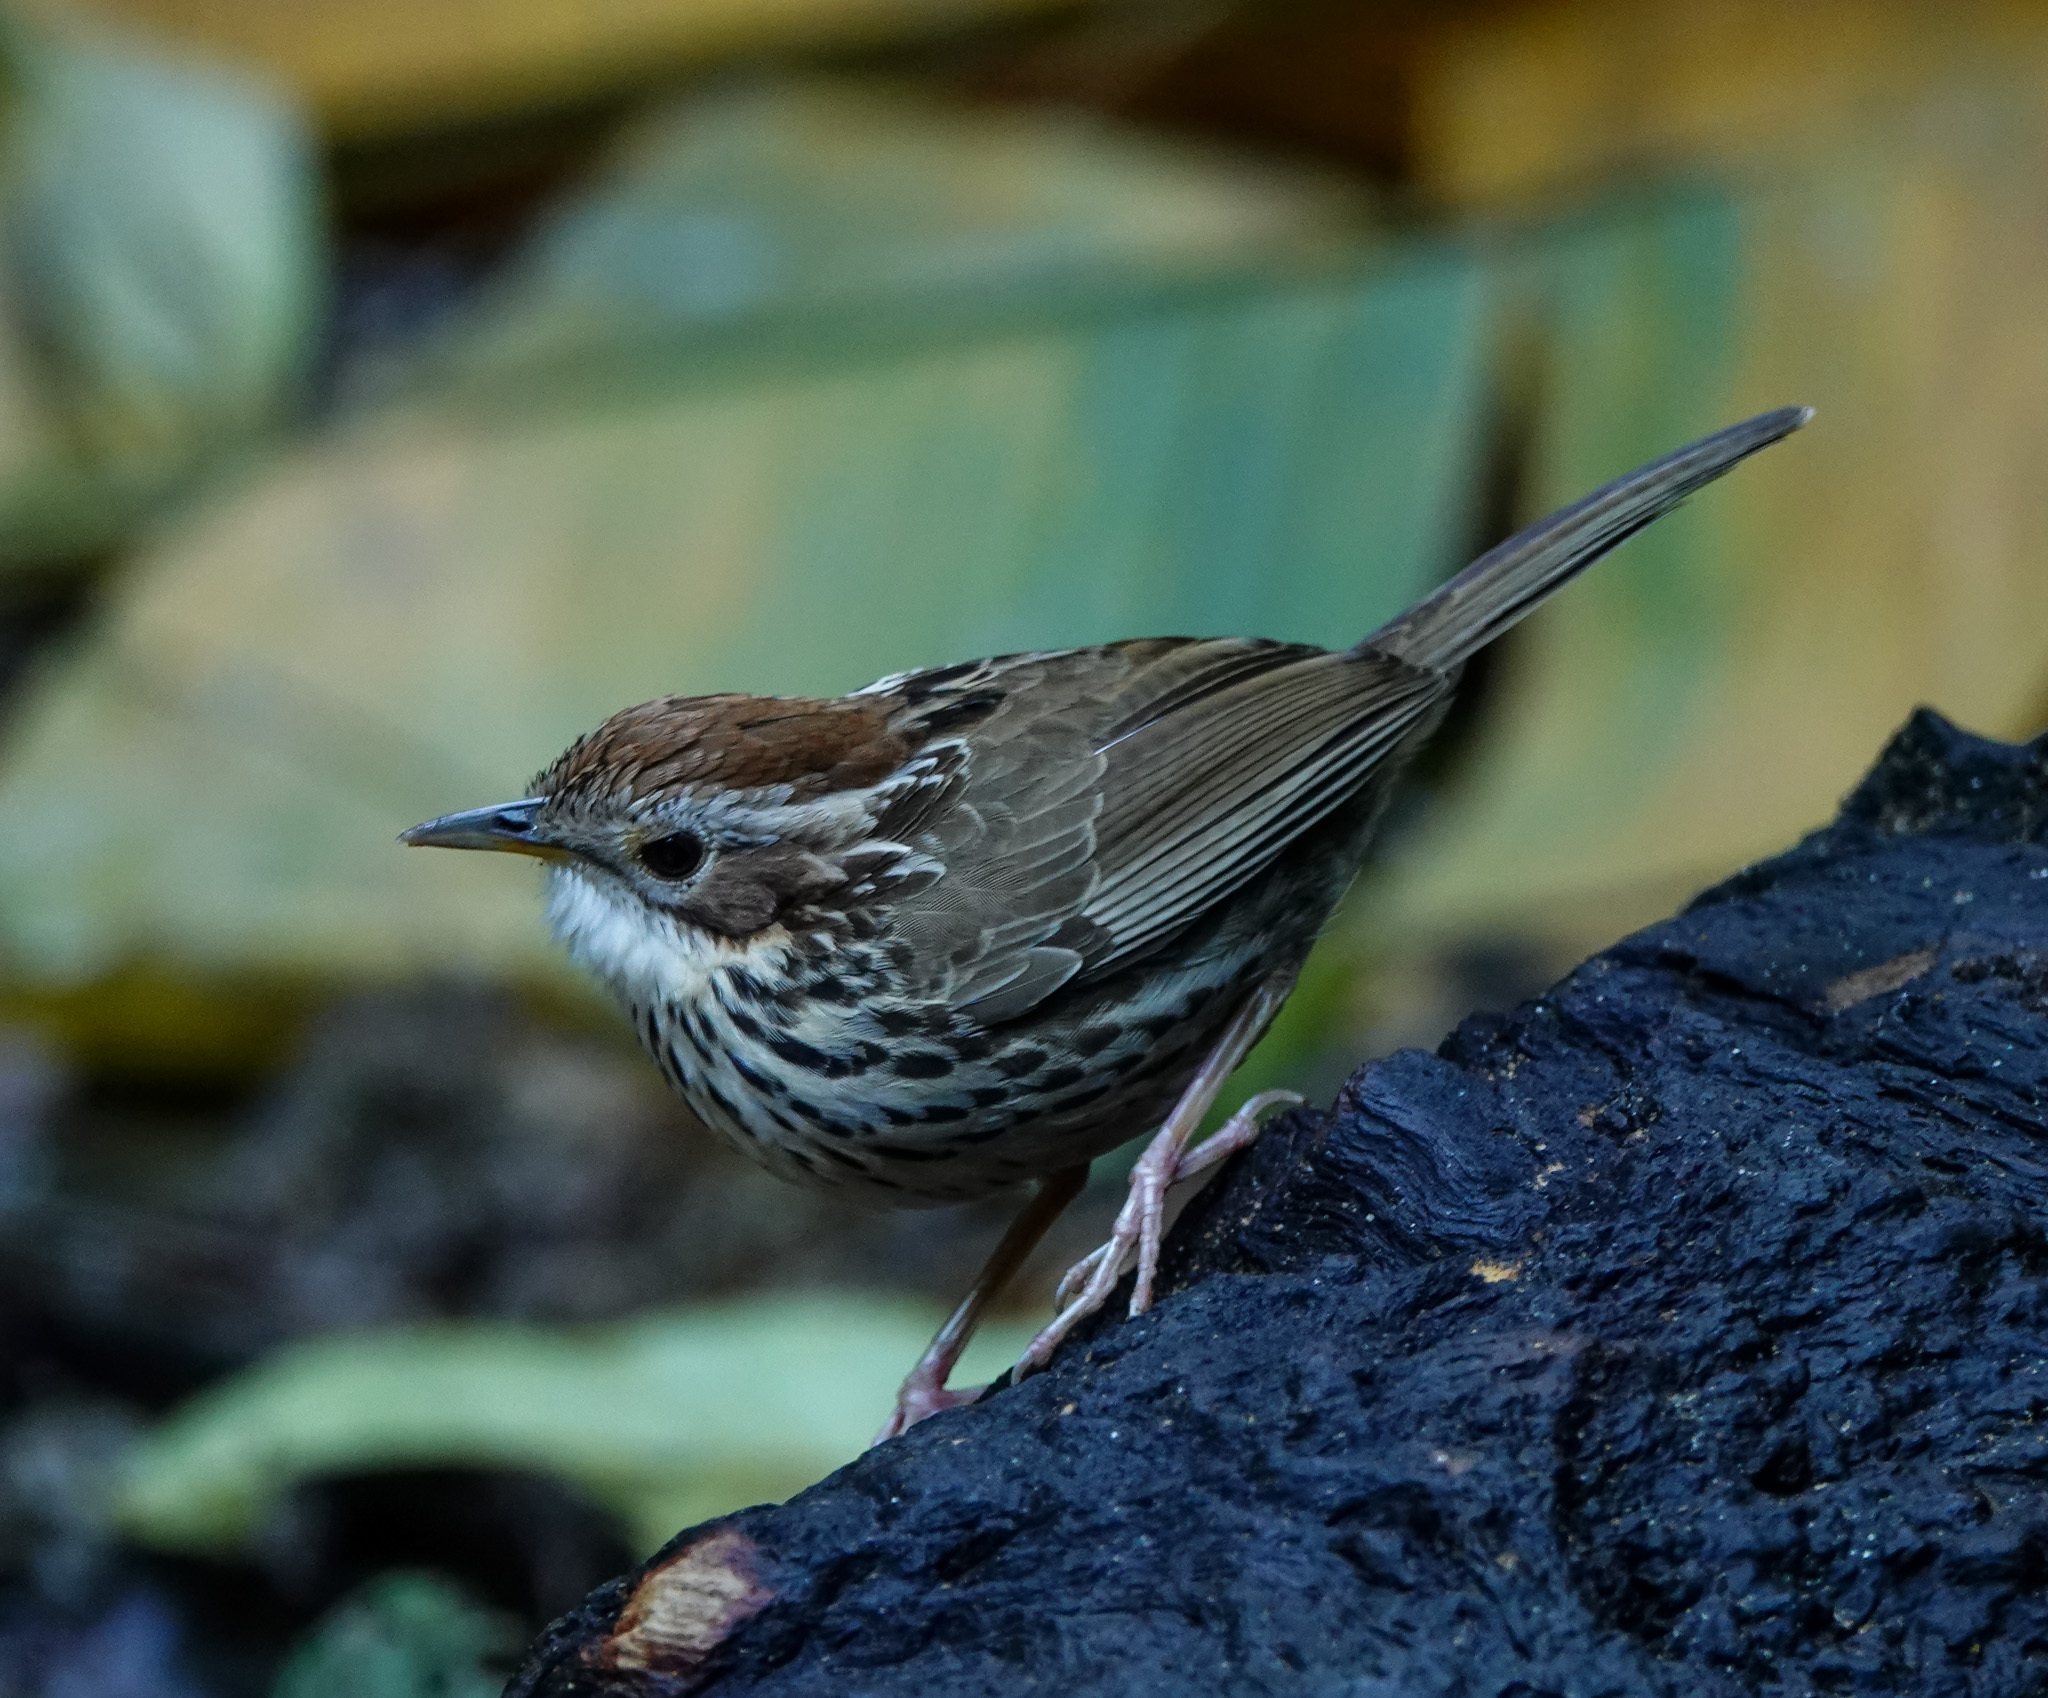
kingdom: Animalia
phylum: Chordata
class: Aves
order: Passeriformes
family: Pellorneidae
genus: Pellorneum
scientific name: Pellorneum ruficeps
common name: Puff-throated babbler
